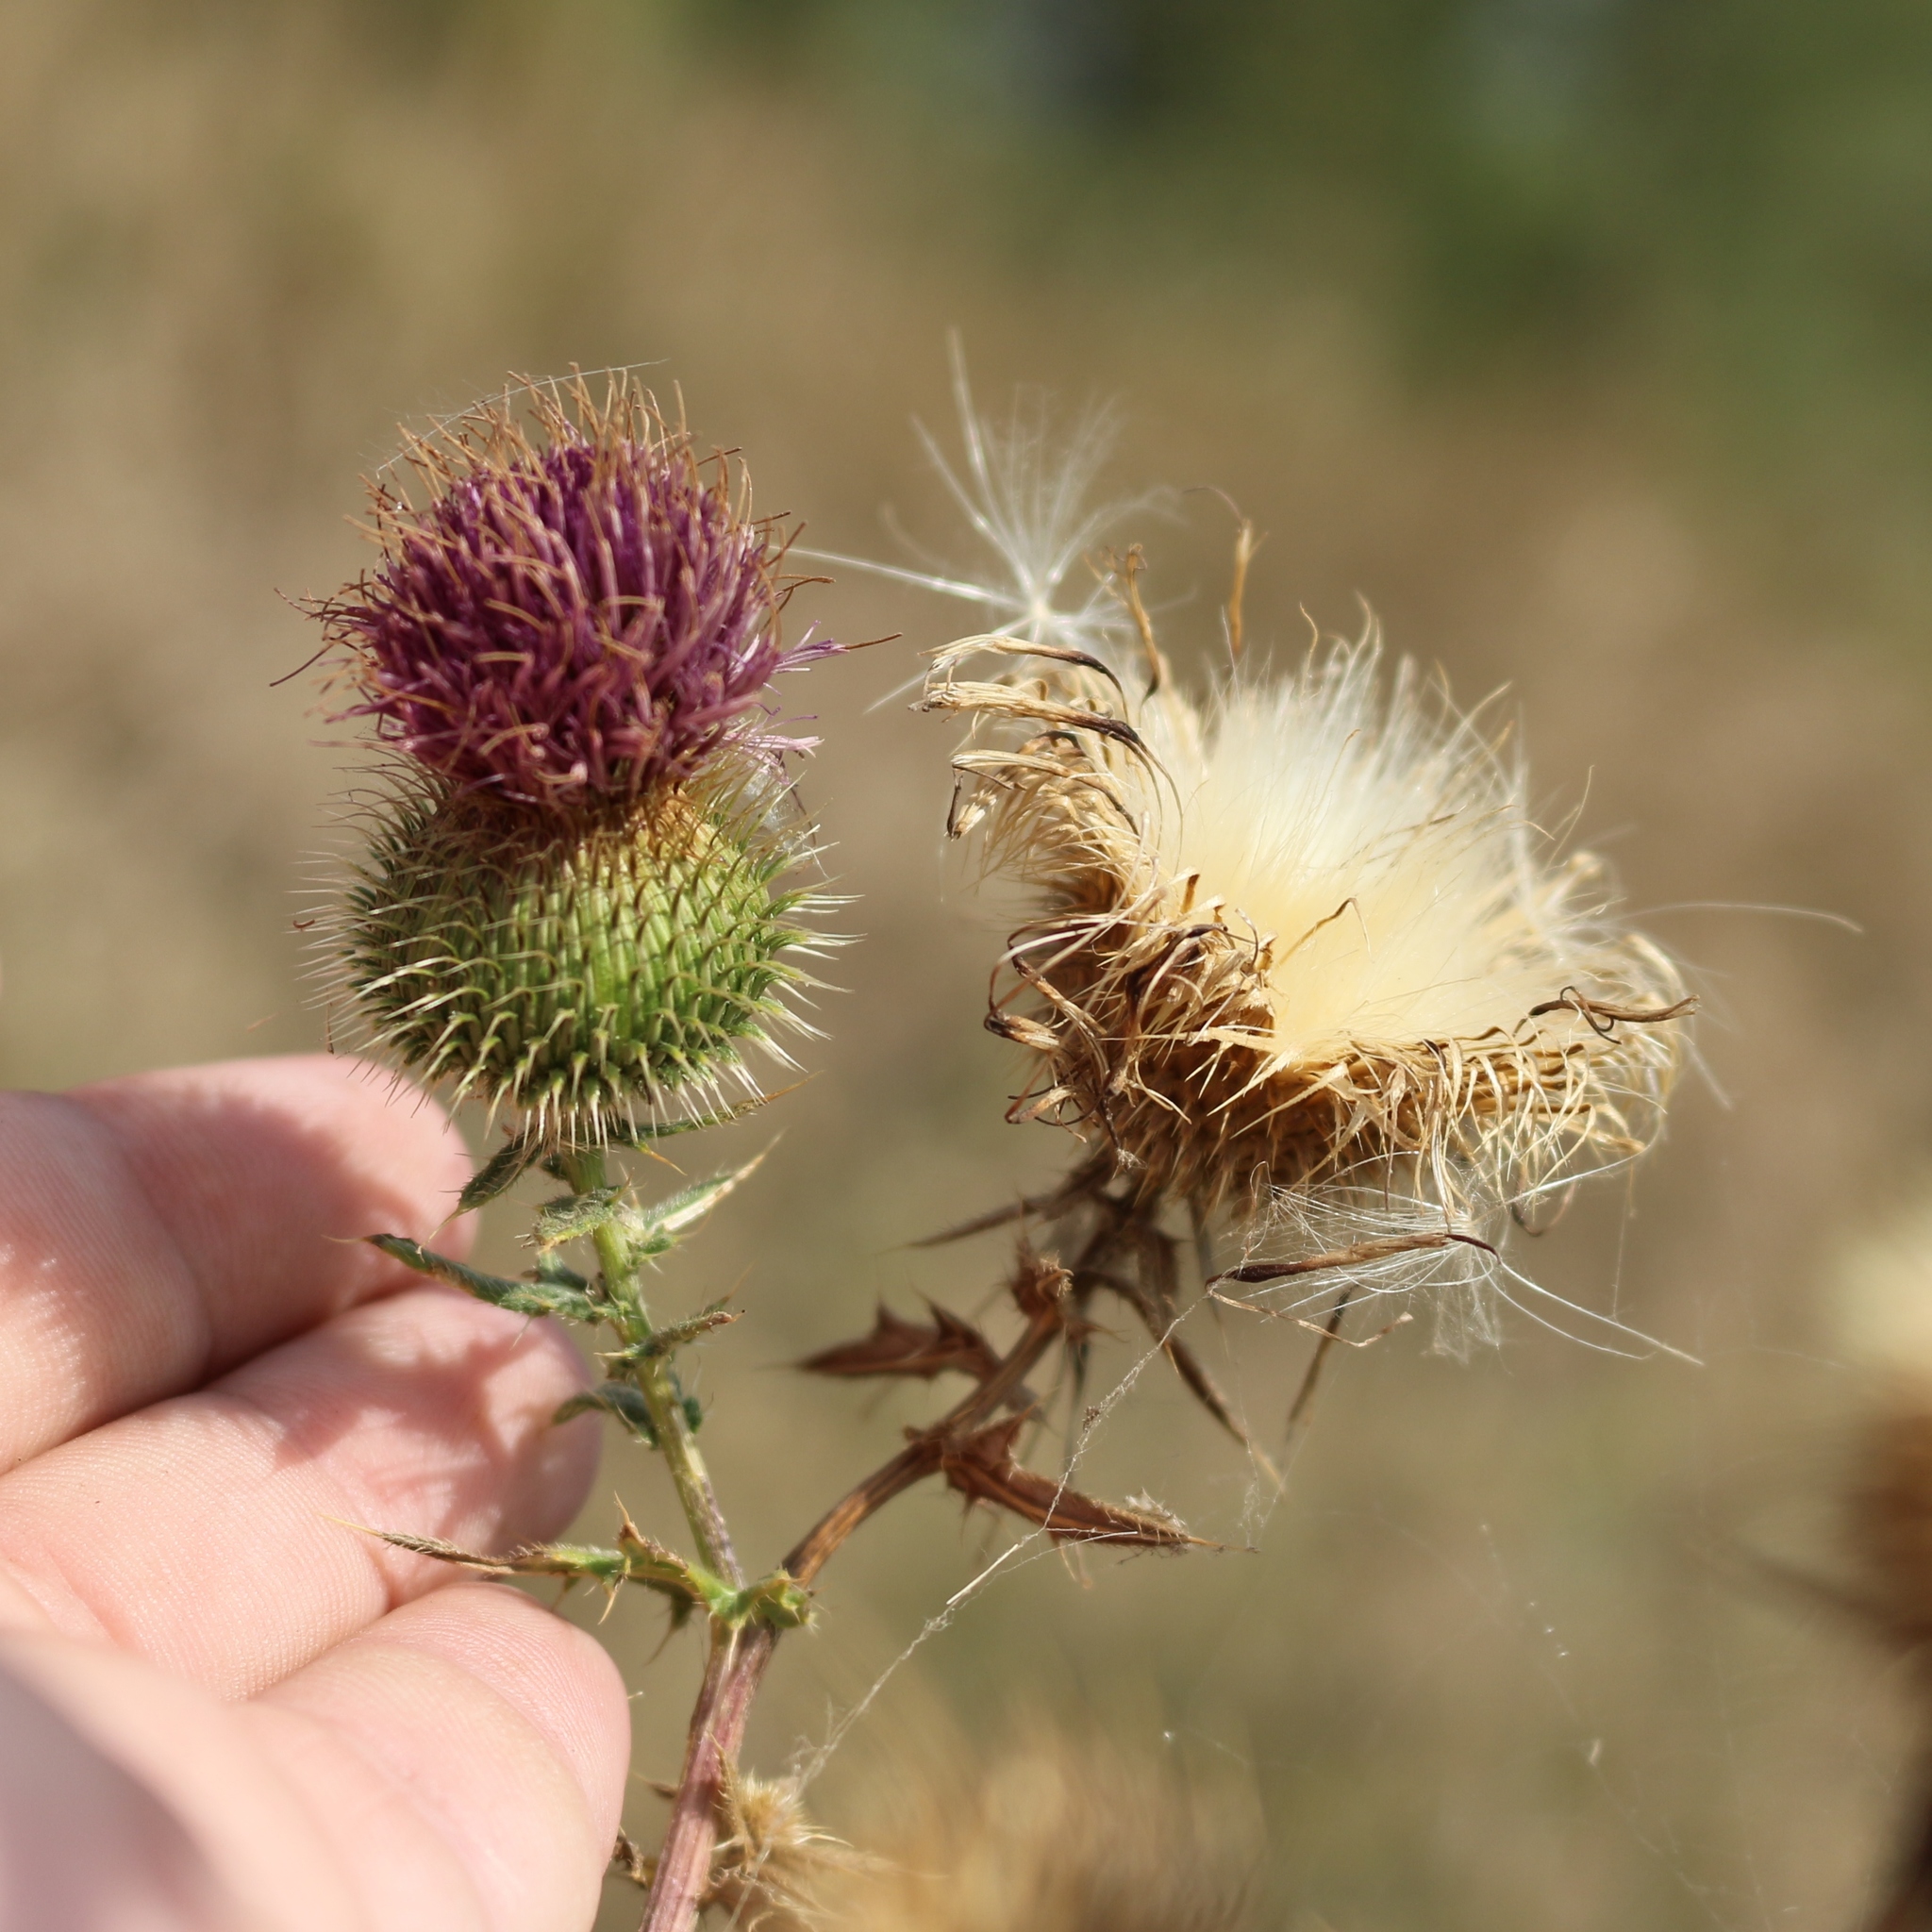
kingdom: Plantae
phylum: Tracheophyta
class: Magnoliopsida
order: Asterales
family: Asteraceae
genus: Cirsium
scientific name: Cirsium serrulatum
